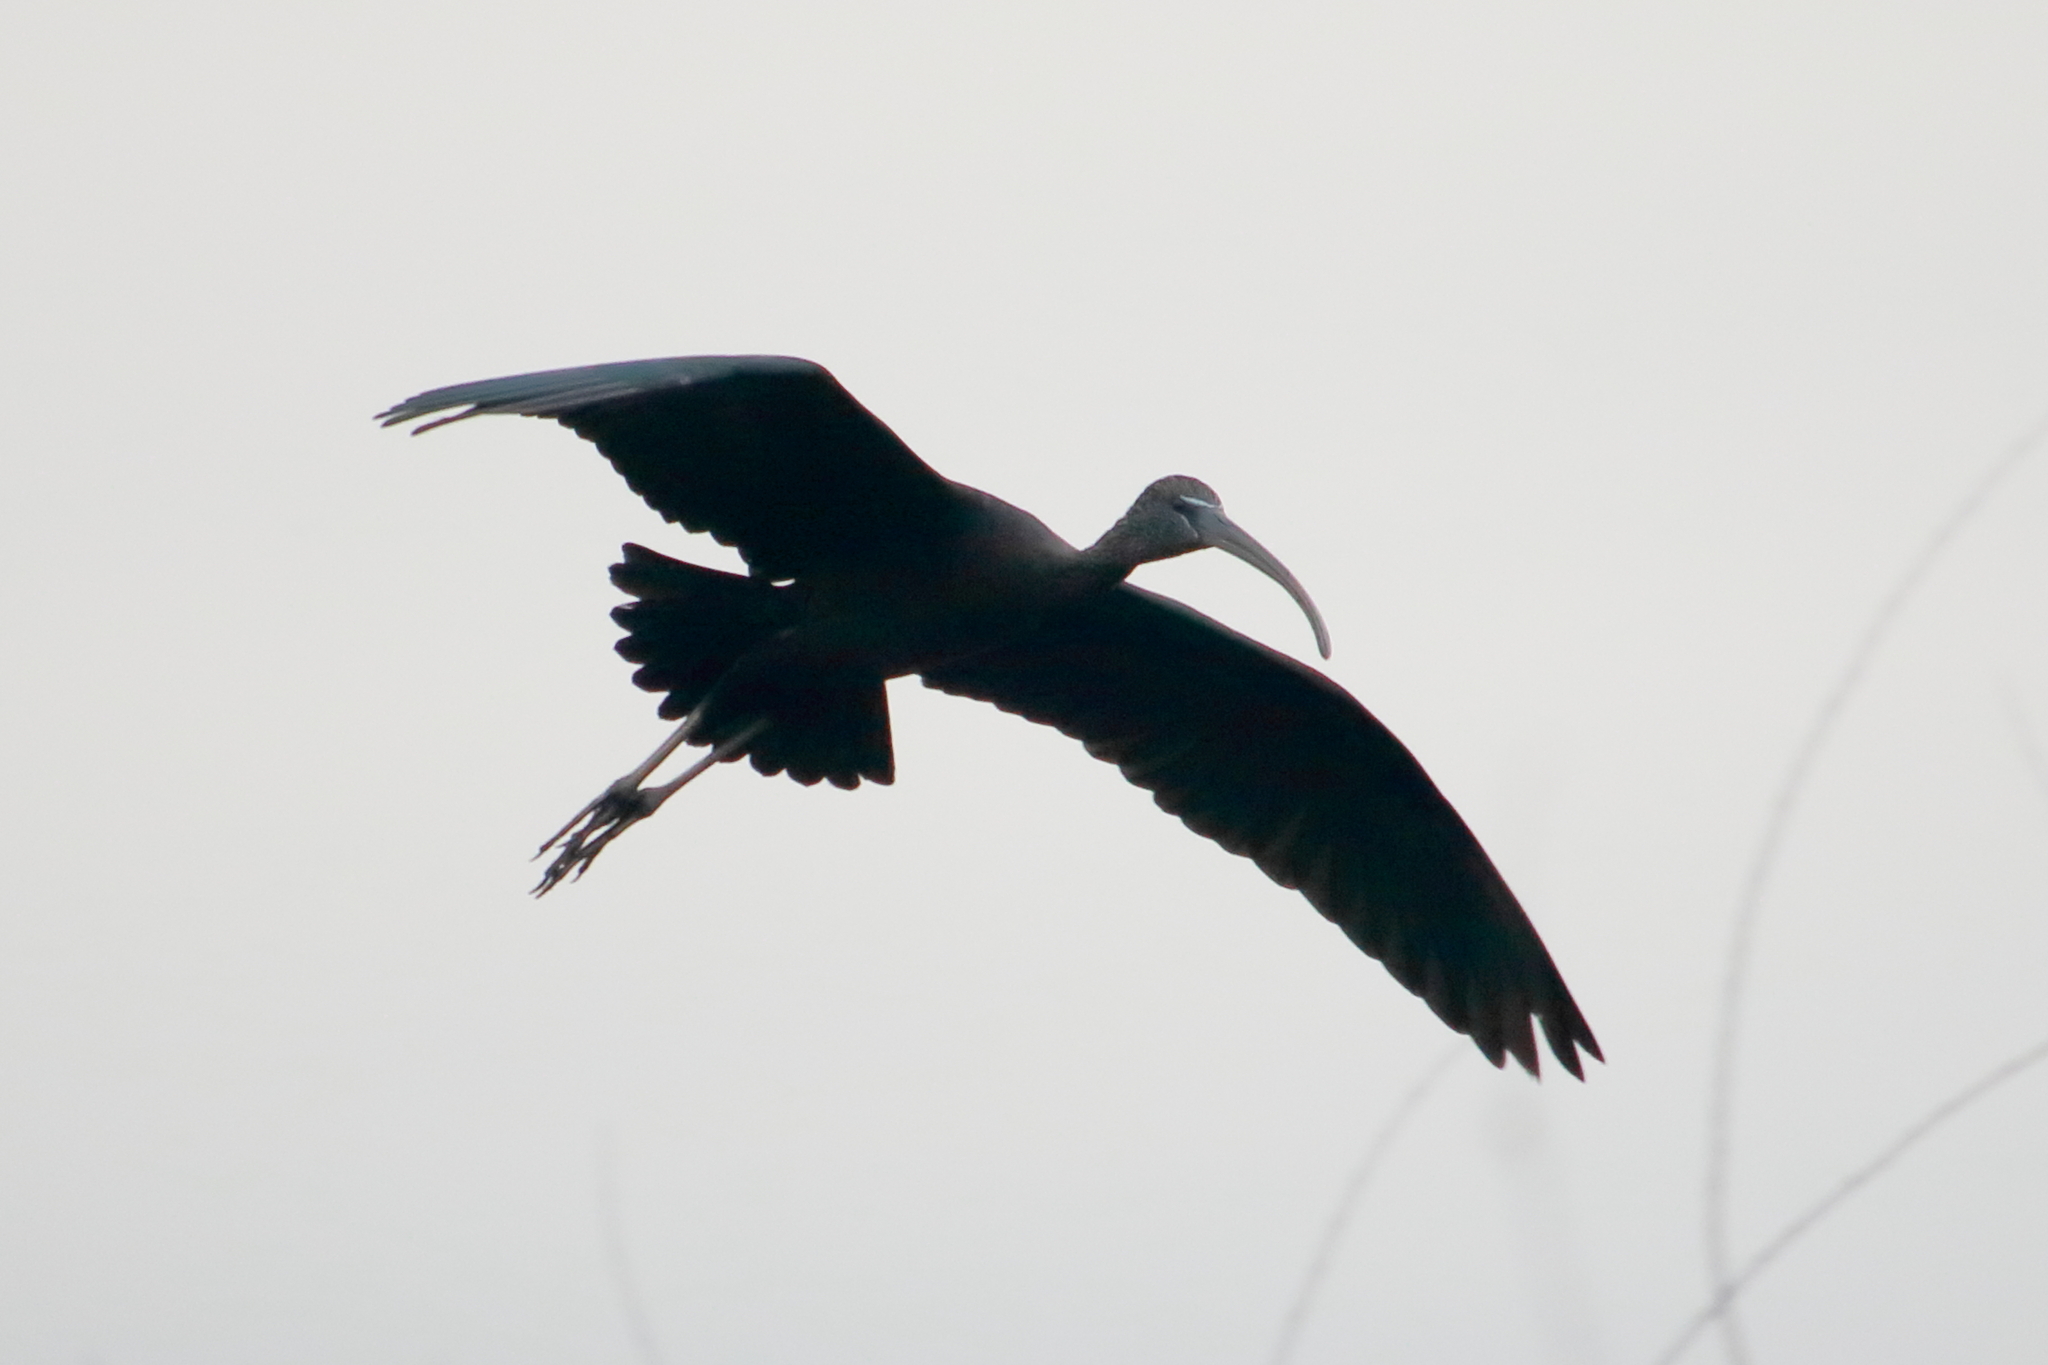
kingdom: Animalia
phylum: Chordata
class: Aves
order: Pelecaniformes
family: Threskiornithidae
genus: Plegadis
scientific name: Plegadis falcinellus
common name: Glossy ibis
